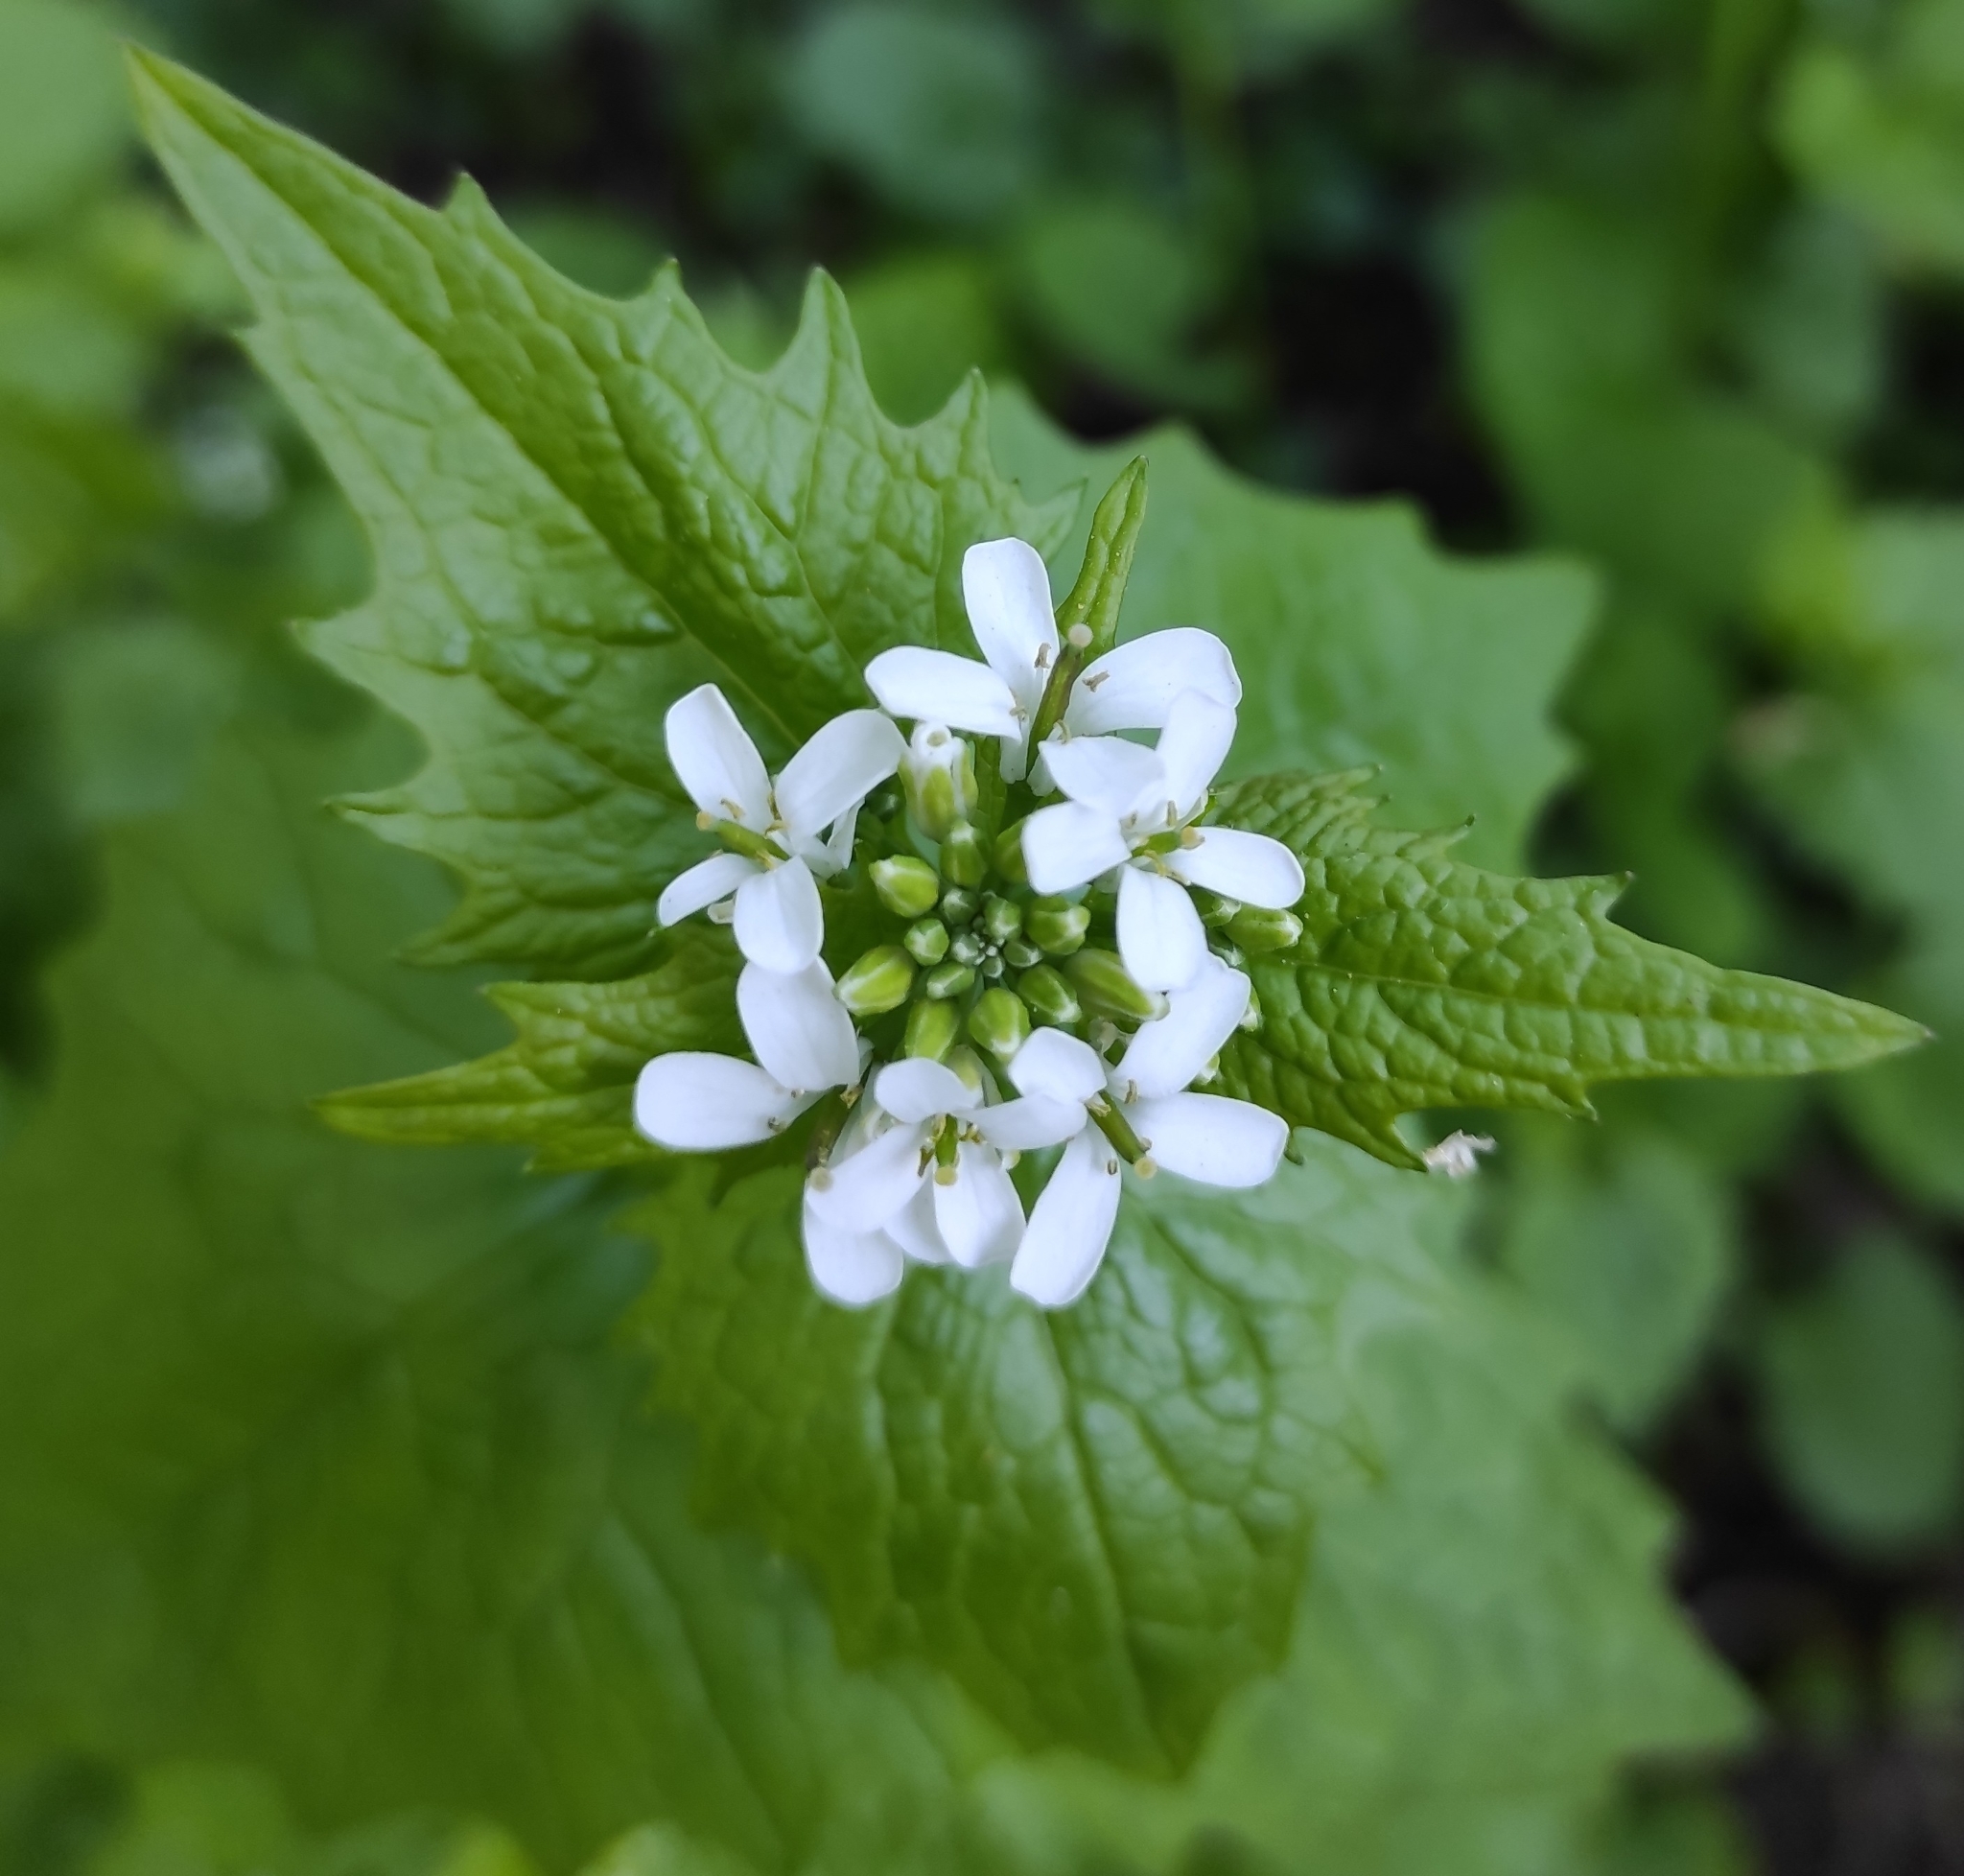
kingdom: Plantae
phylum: Tracheophyta
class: Magnoliopsida
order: Brassicales
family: Brassicaceae
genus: Alliaria
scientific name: Alliaria petiolata
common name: Garlic mustard
